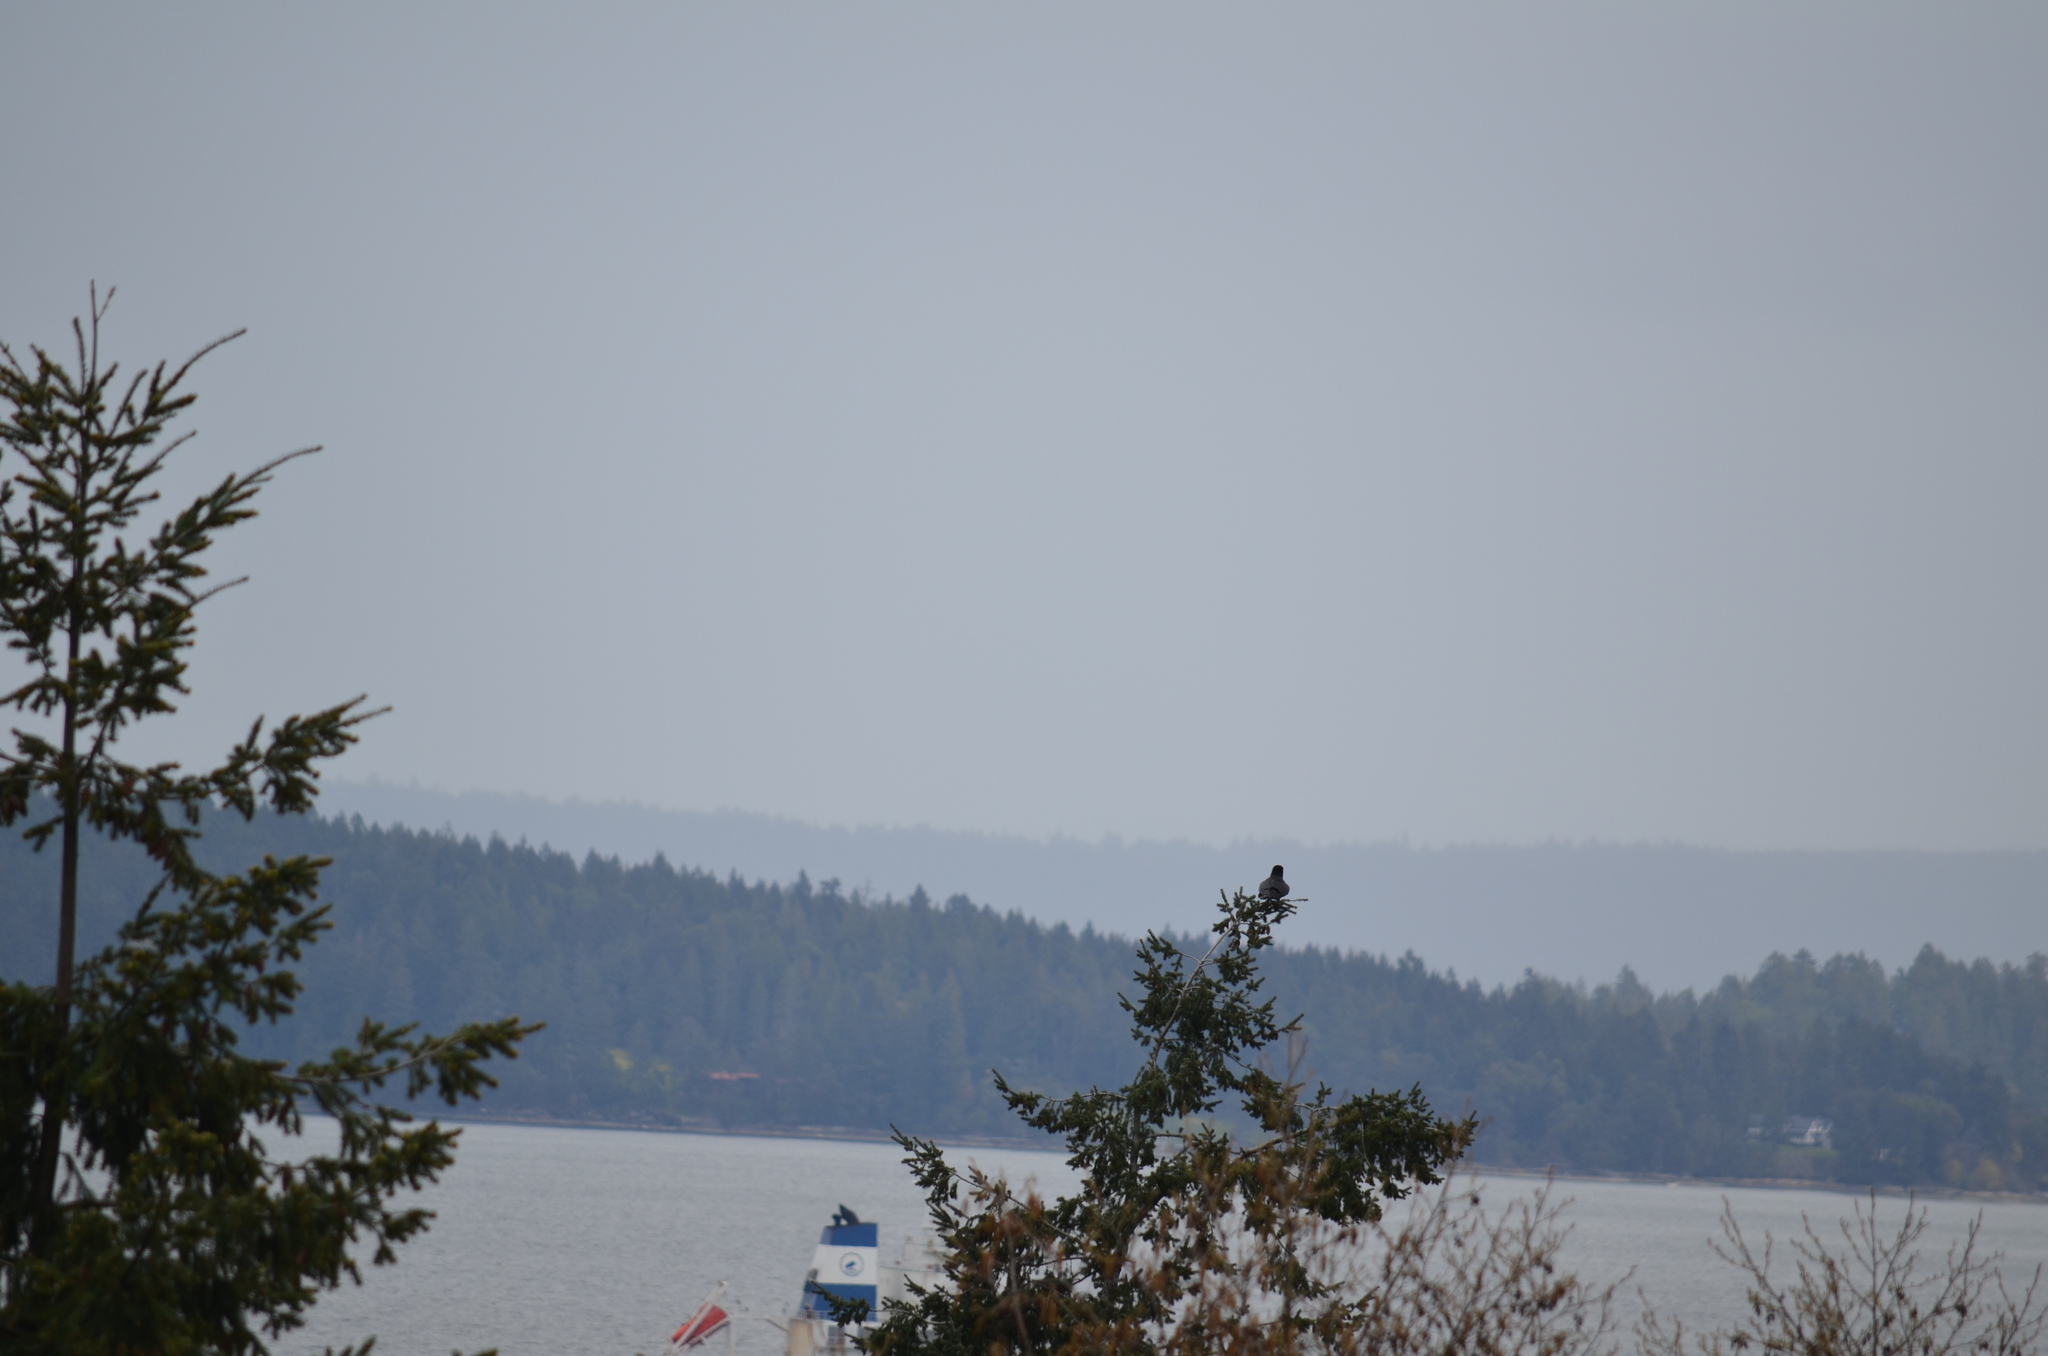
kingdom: Animalia
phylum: Chordata
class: Aves
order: Passeriformes
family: Corvidae
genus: Corvus
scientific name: Corvus corax
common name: Common raven
